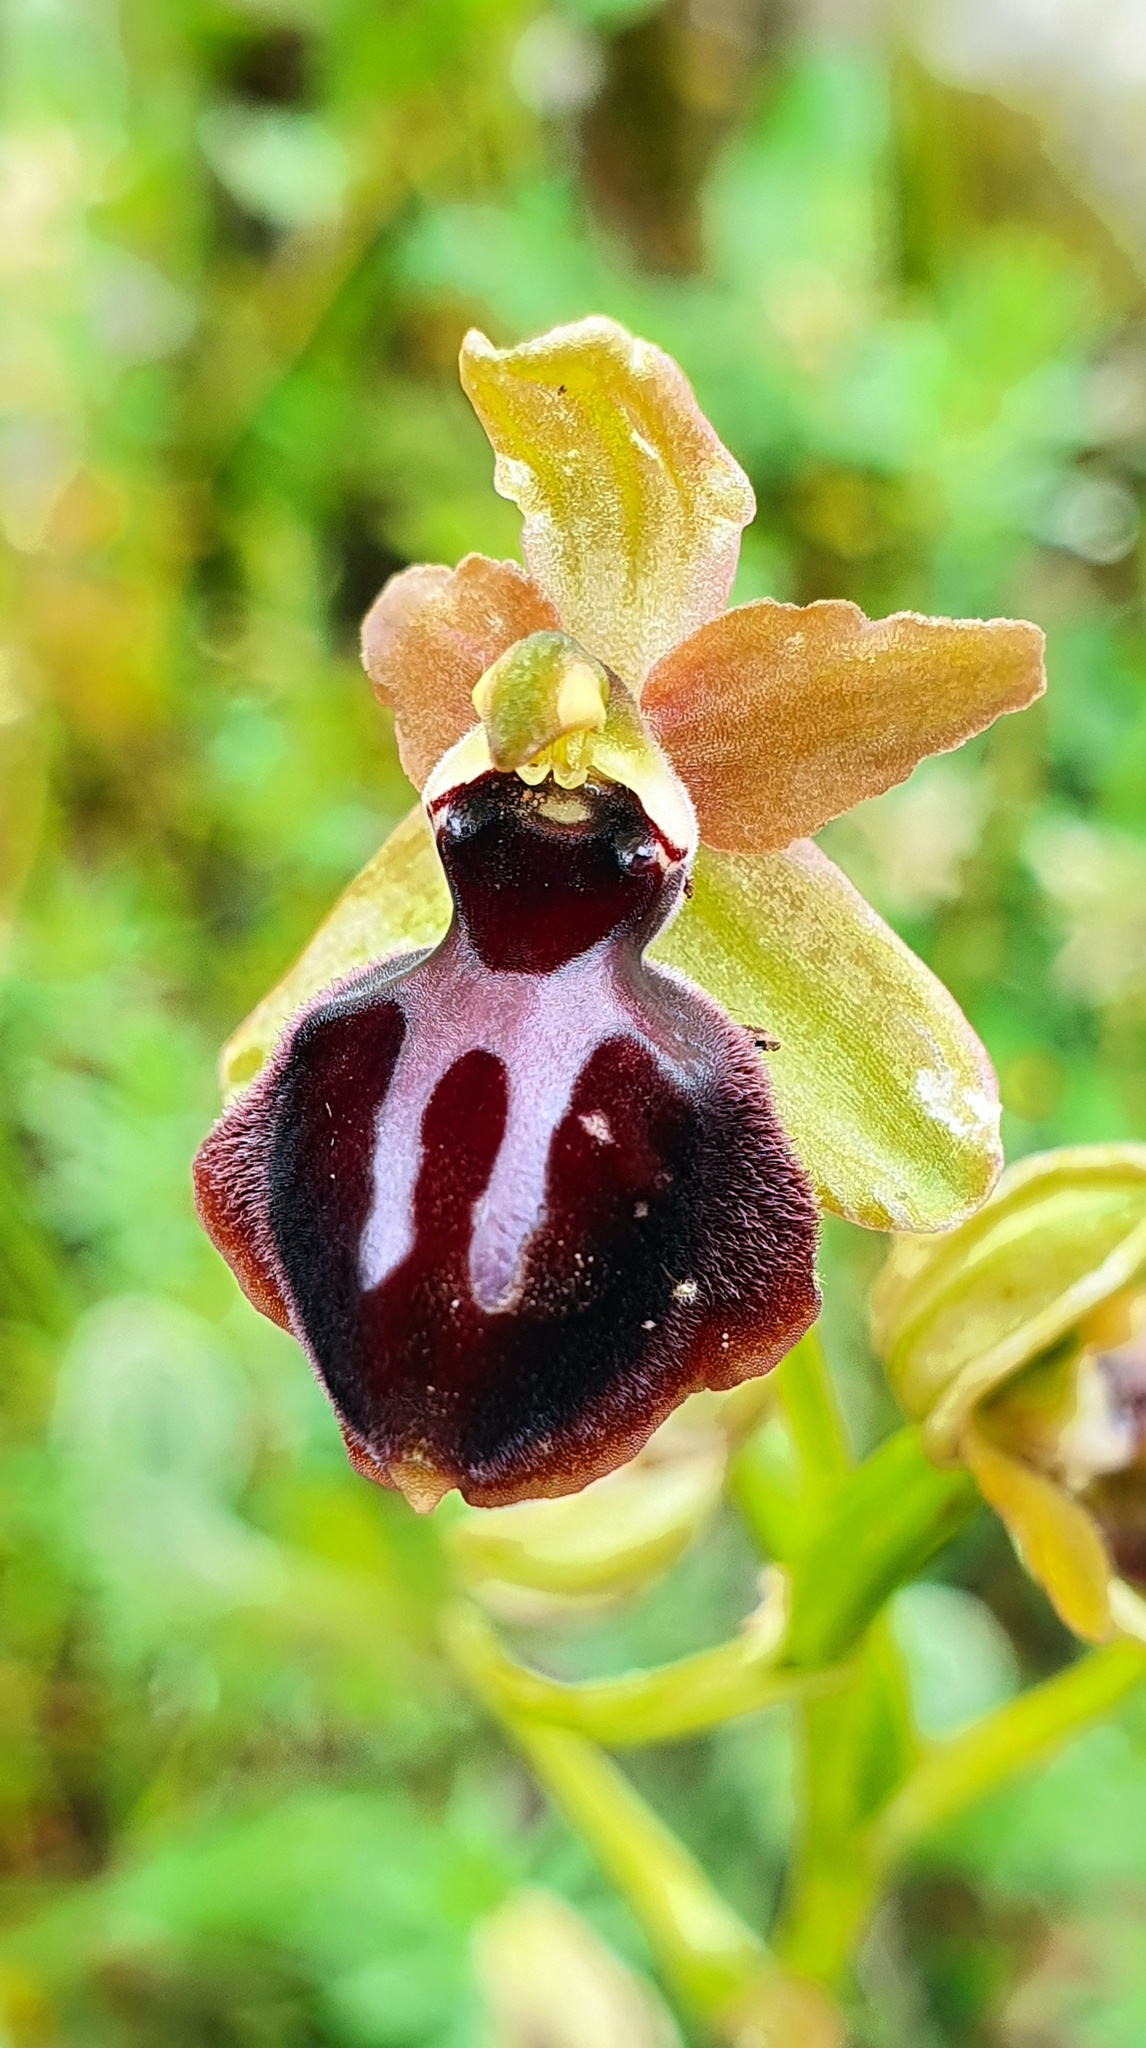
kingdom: Plantae
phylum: Tracheophyta
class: Liliopsida
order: Asparagales
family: Orchidaceae
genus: Ophrys
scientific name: Ophrys sphegodes
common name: Early spider-orchid
